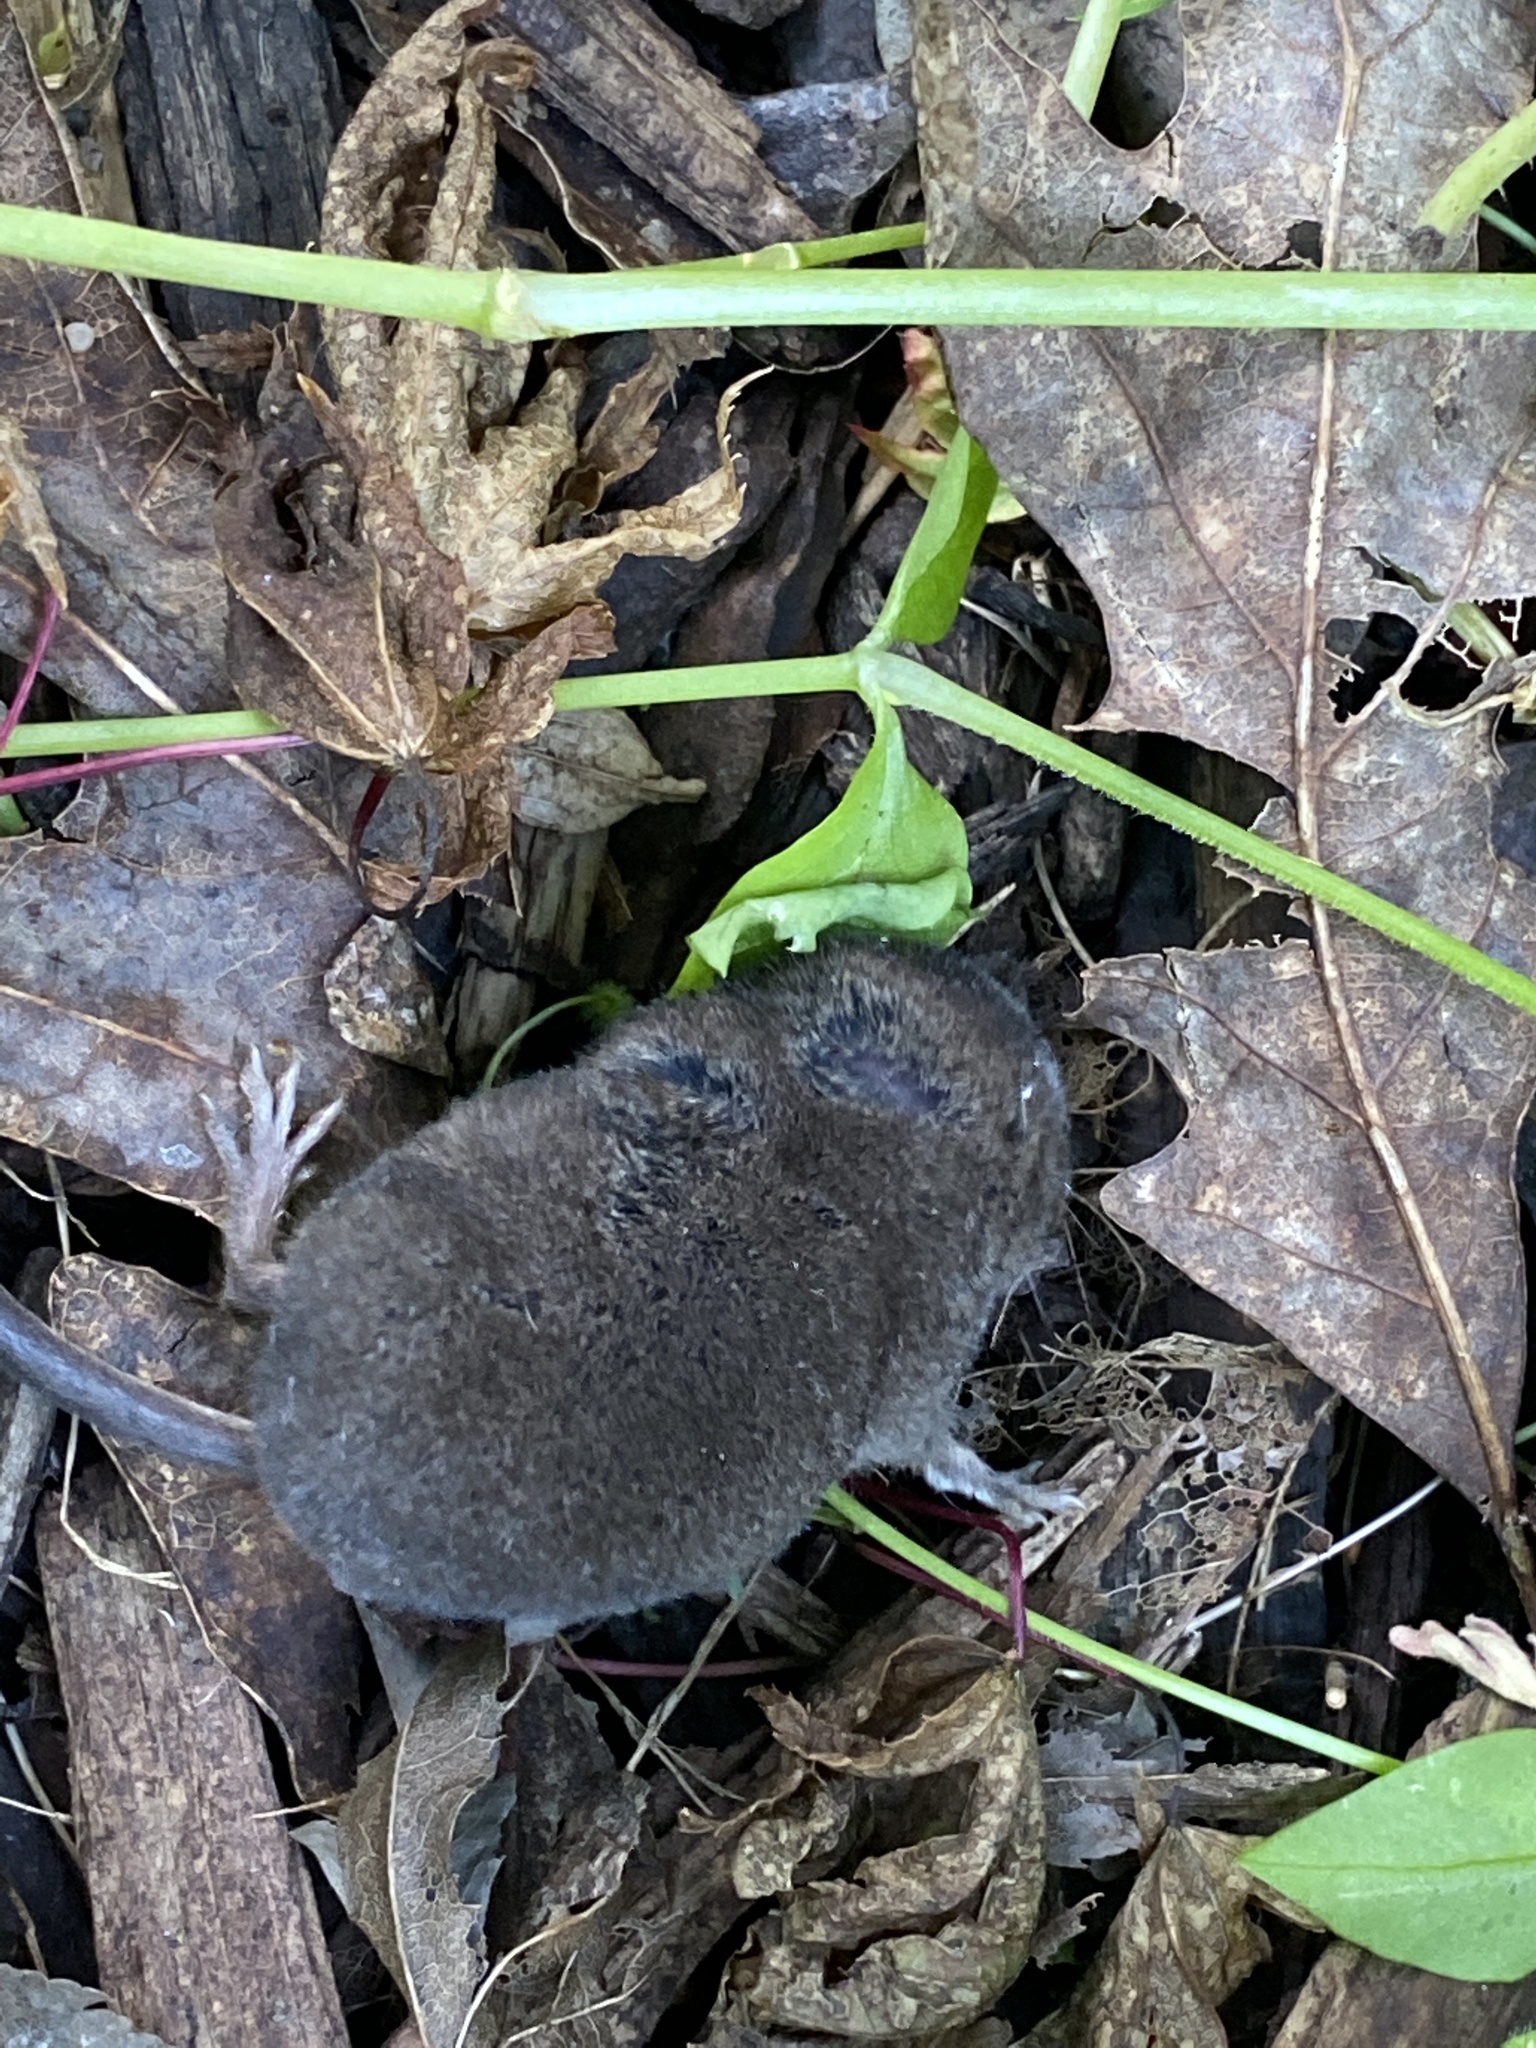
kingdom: Animalia
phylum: Chordata
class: Mammalia
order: Soricomorpha
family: Soricidae
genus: Sorex
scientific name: Sorex fumeus
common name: Smoky shrew
